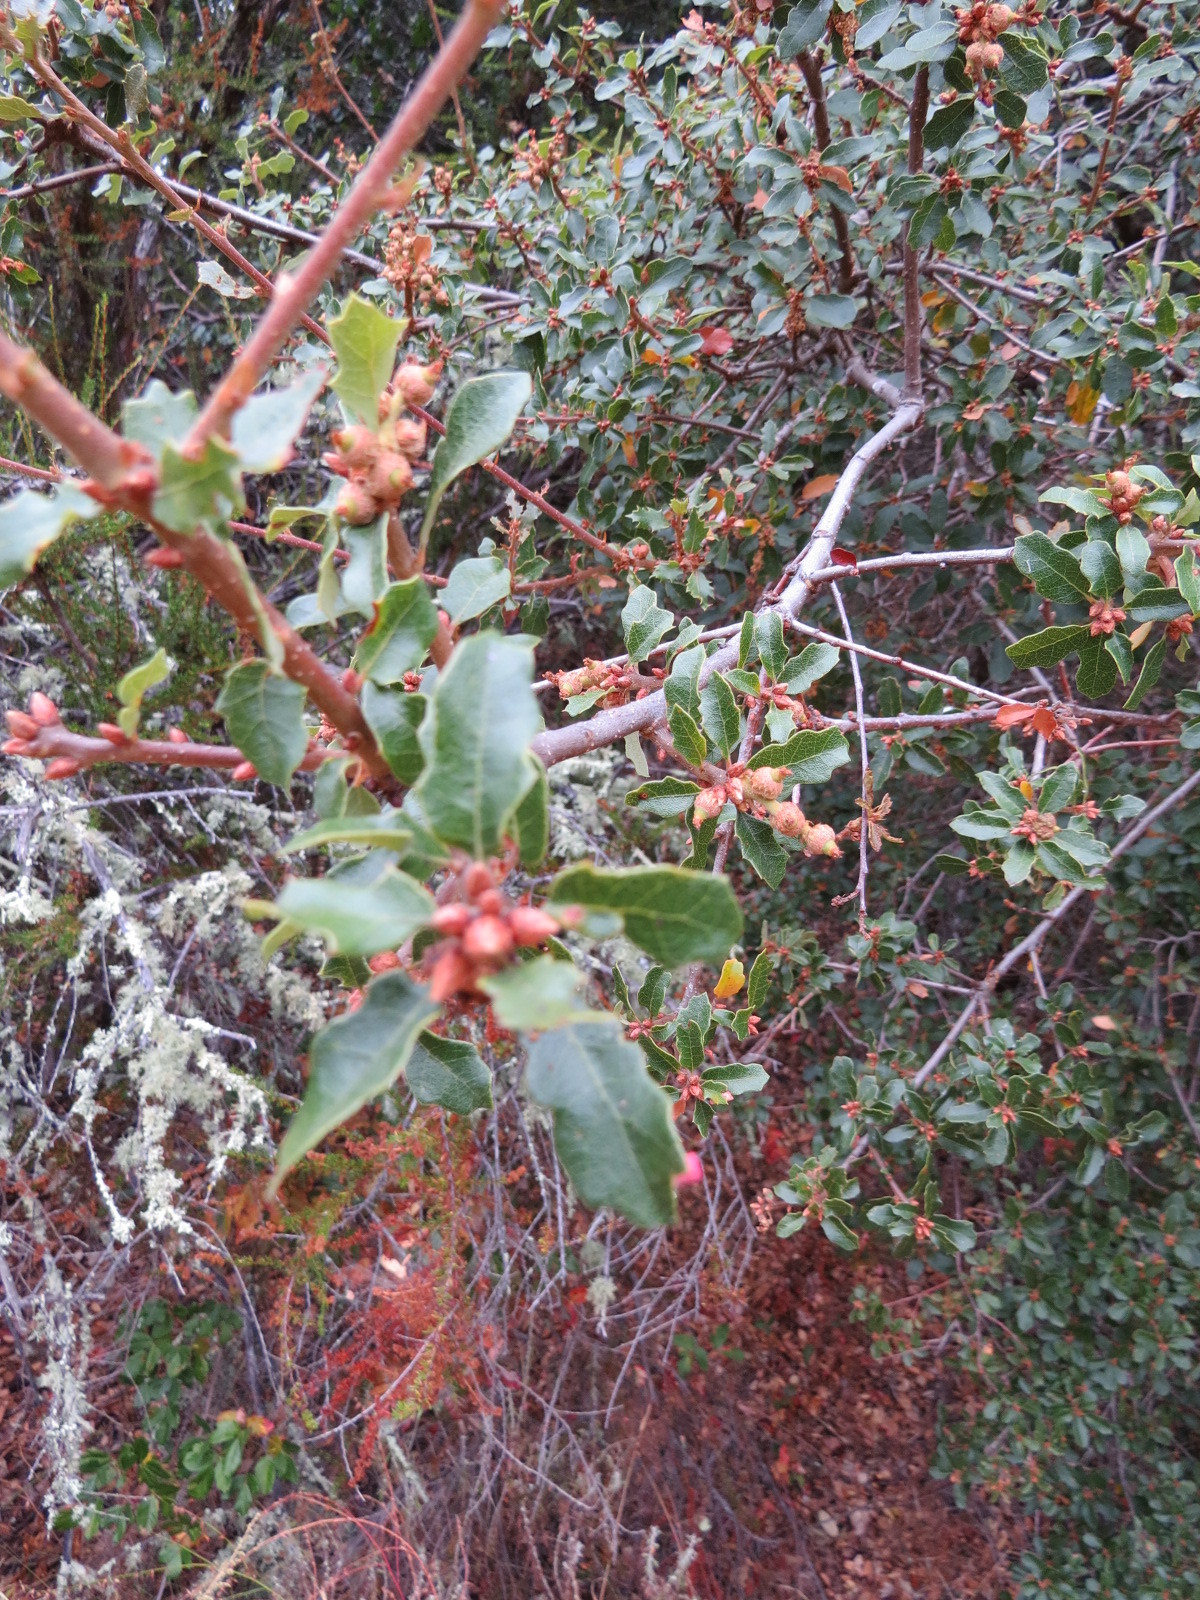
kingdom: Animalia
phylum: Arthropoda
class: Insecta
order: Hymenoptera
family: Cynipidae
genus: Andricus
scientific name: Andricus
